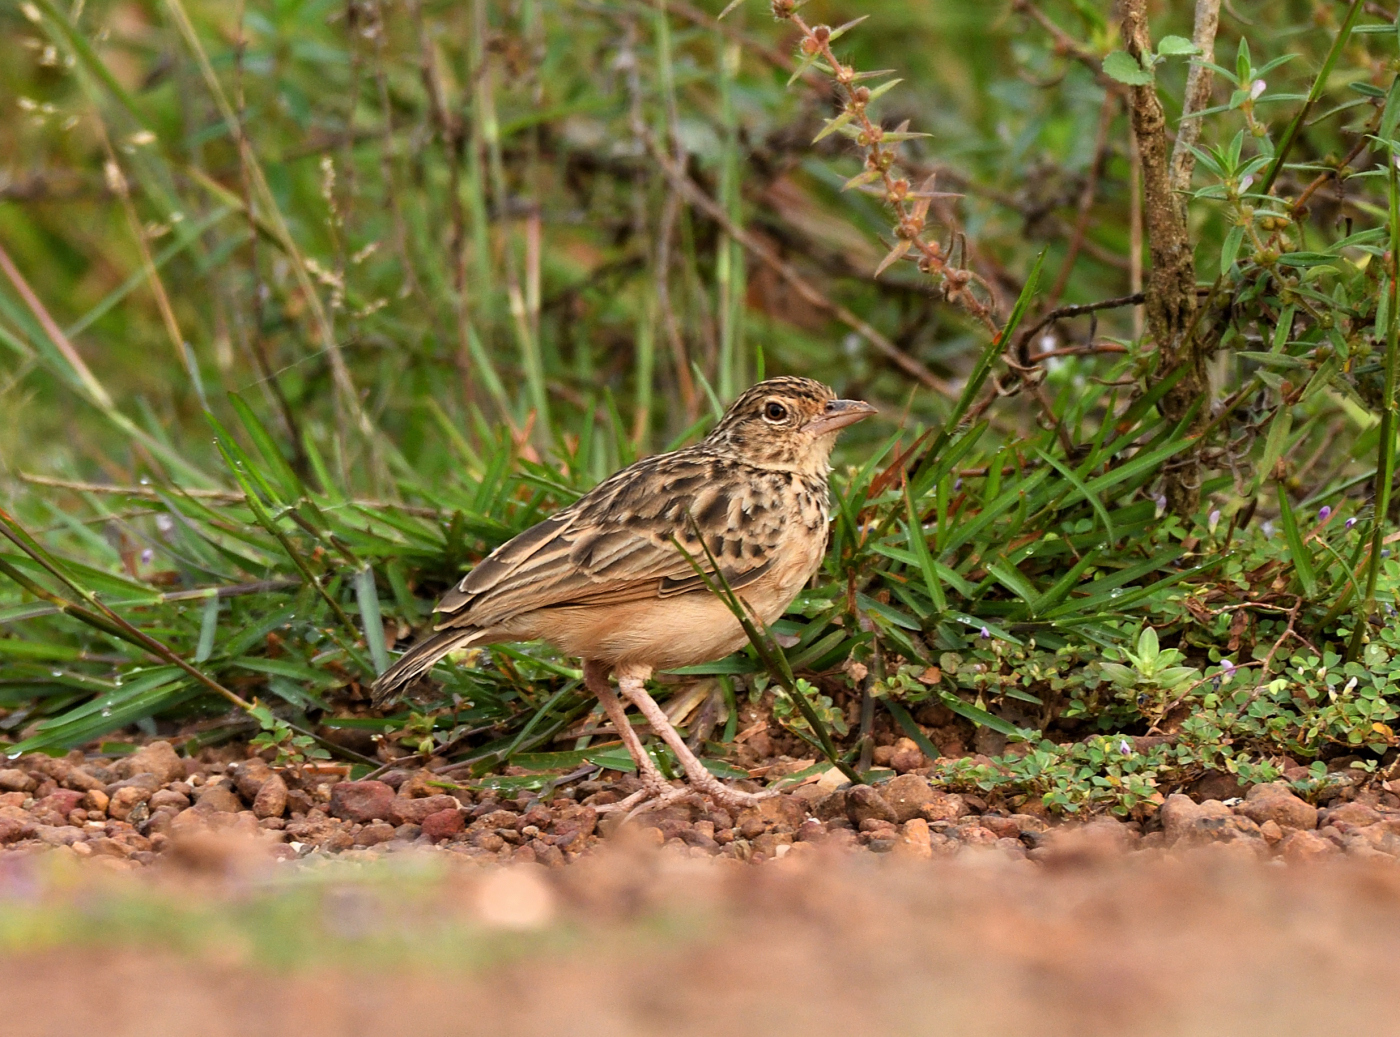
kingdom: Animalia
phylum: Chordata
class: Aves
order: Passeriformes
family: Alaudidae
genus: Mirafra
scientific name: Mirafra affinis
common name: Jerdon's bushlark
